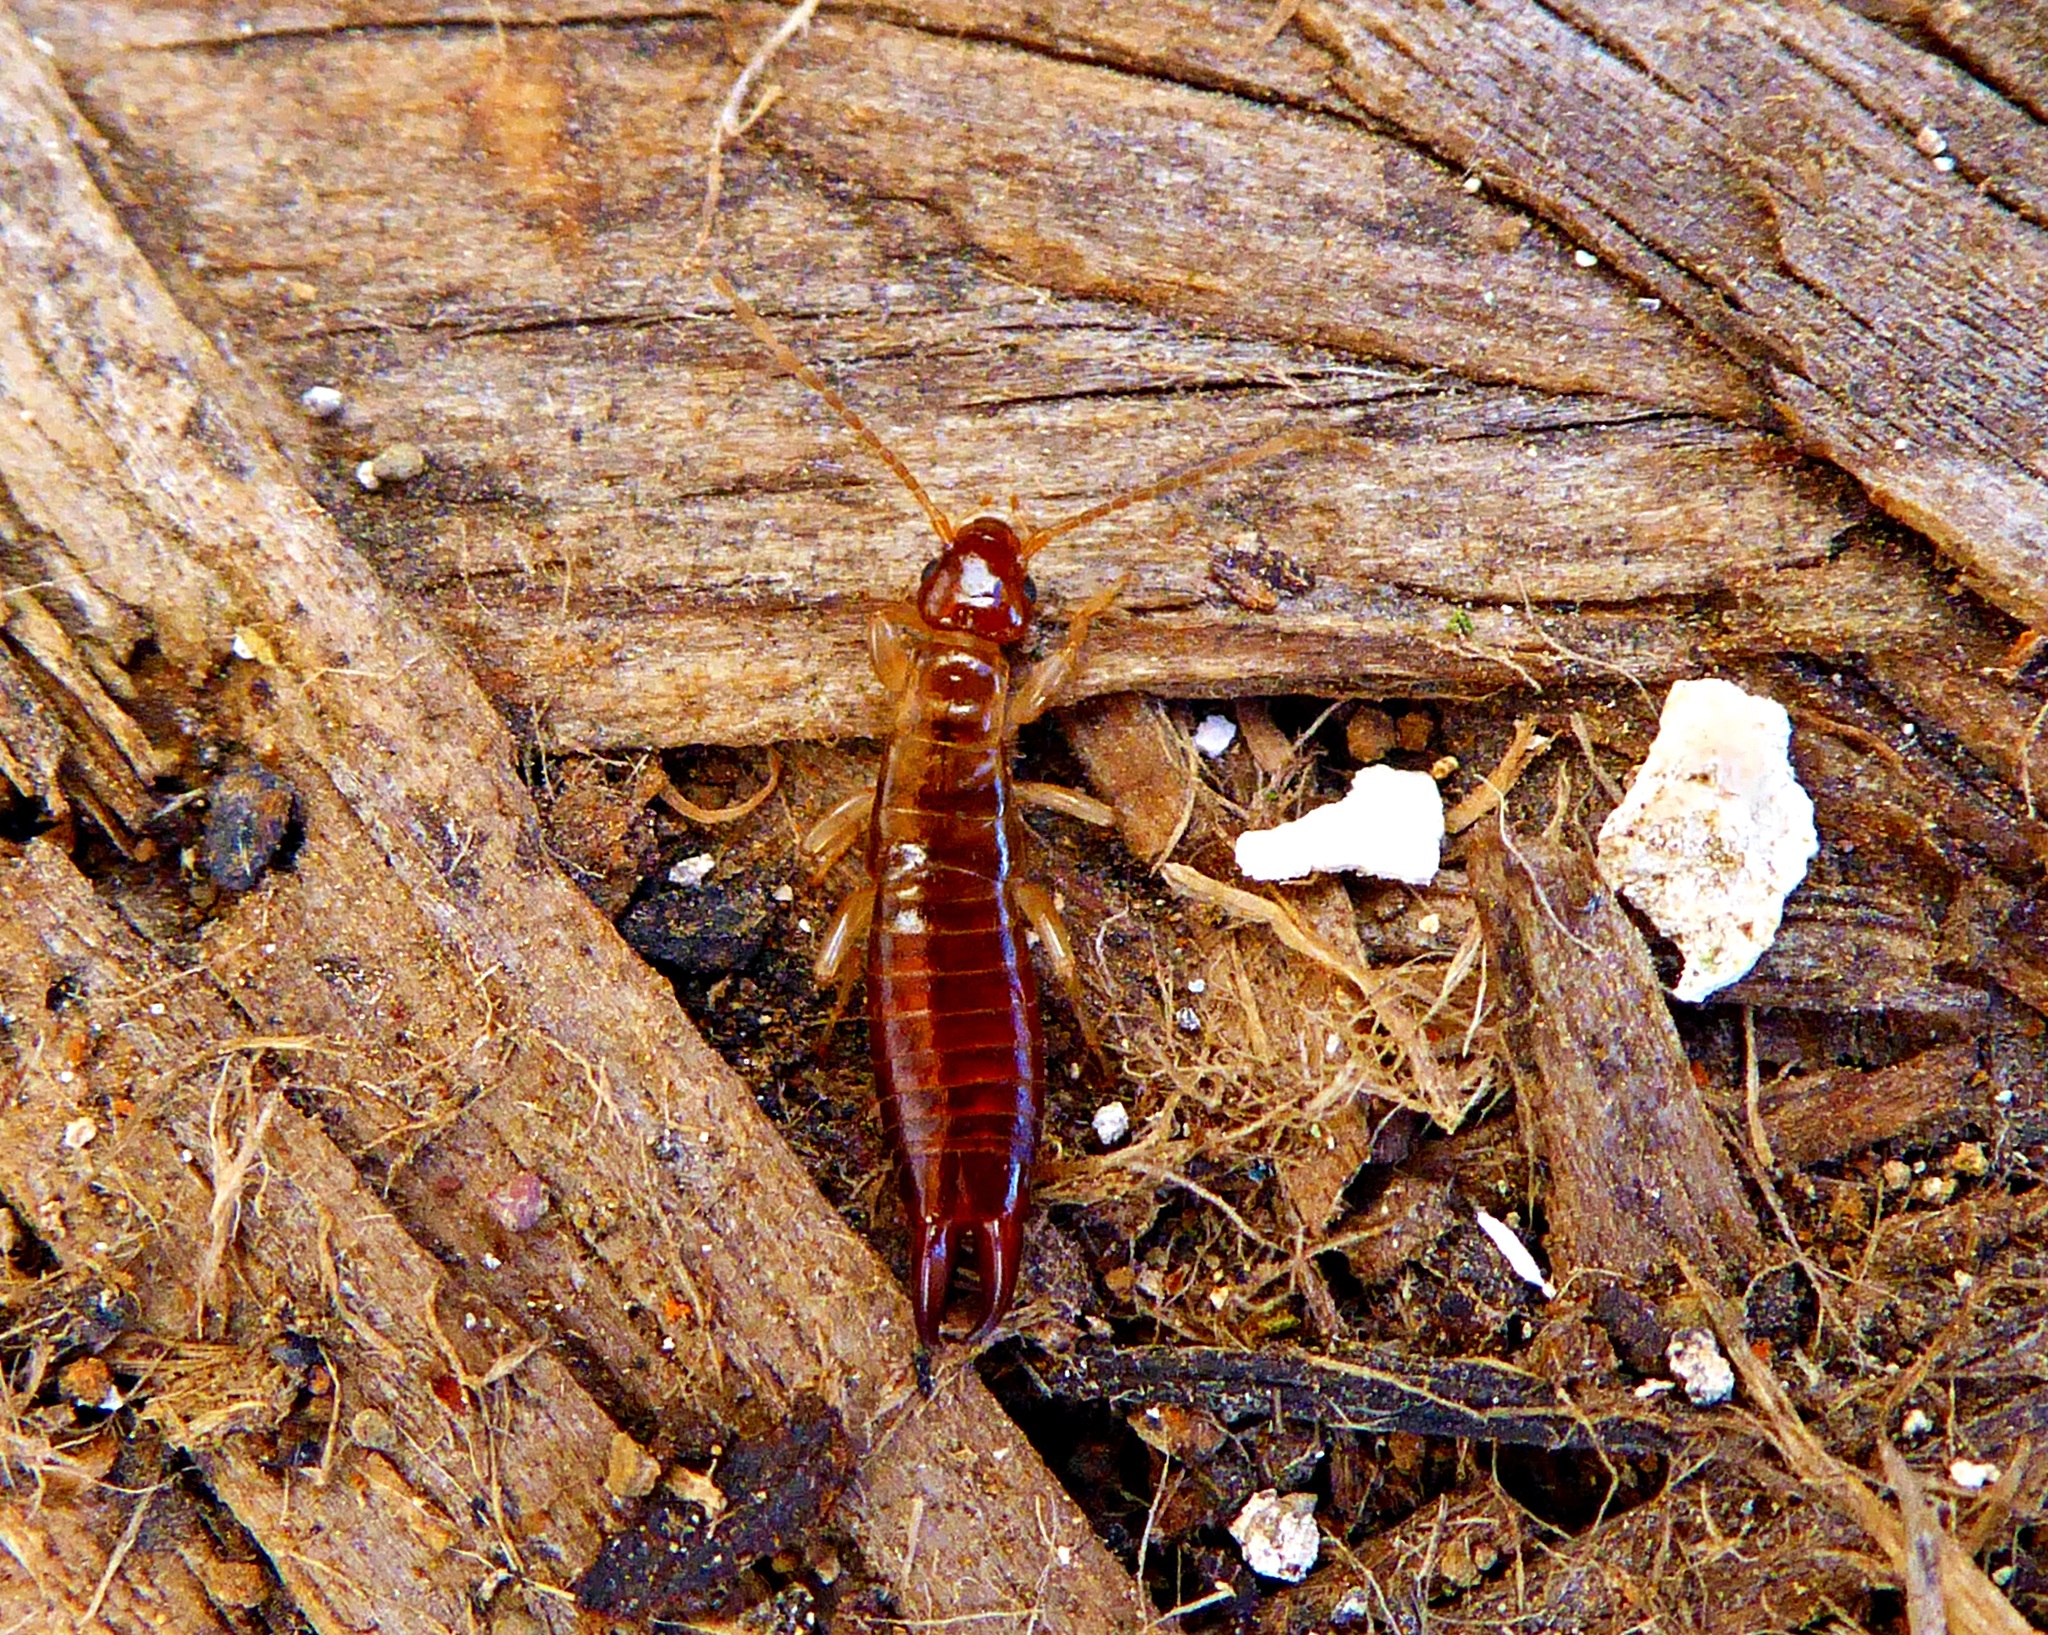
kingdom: Animalia
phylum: Arthropoda
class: Insecta
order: Dermaptera
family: Anisolabididae
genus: Canarilabis
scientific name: Canarilabis maxima
